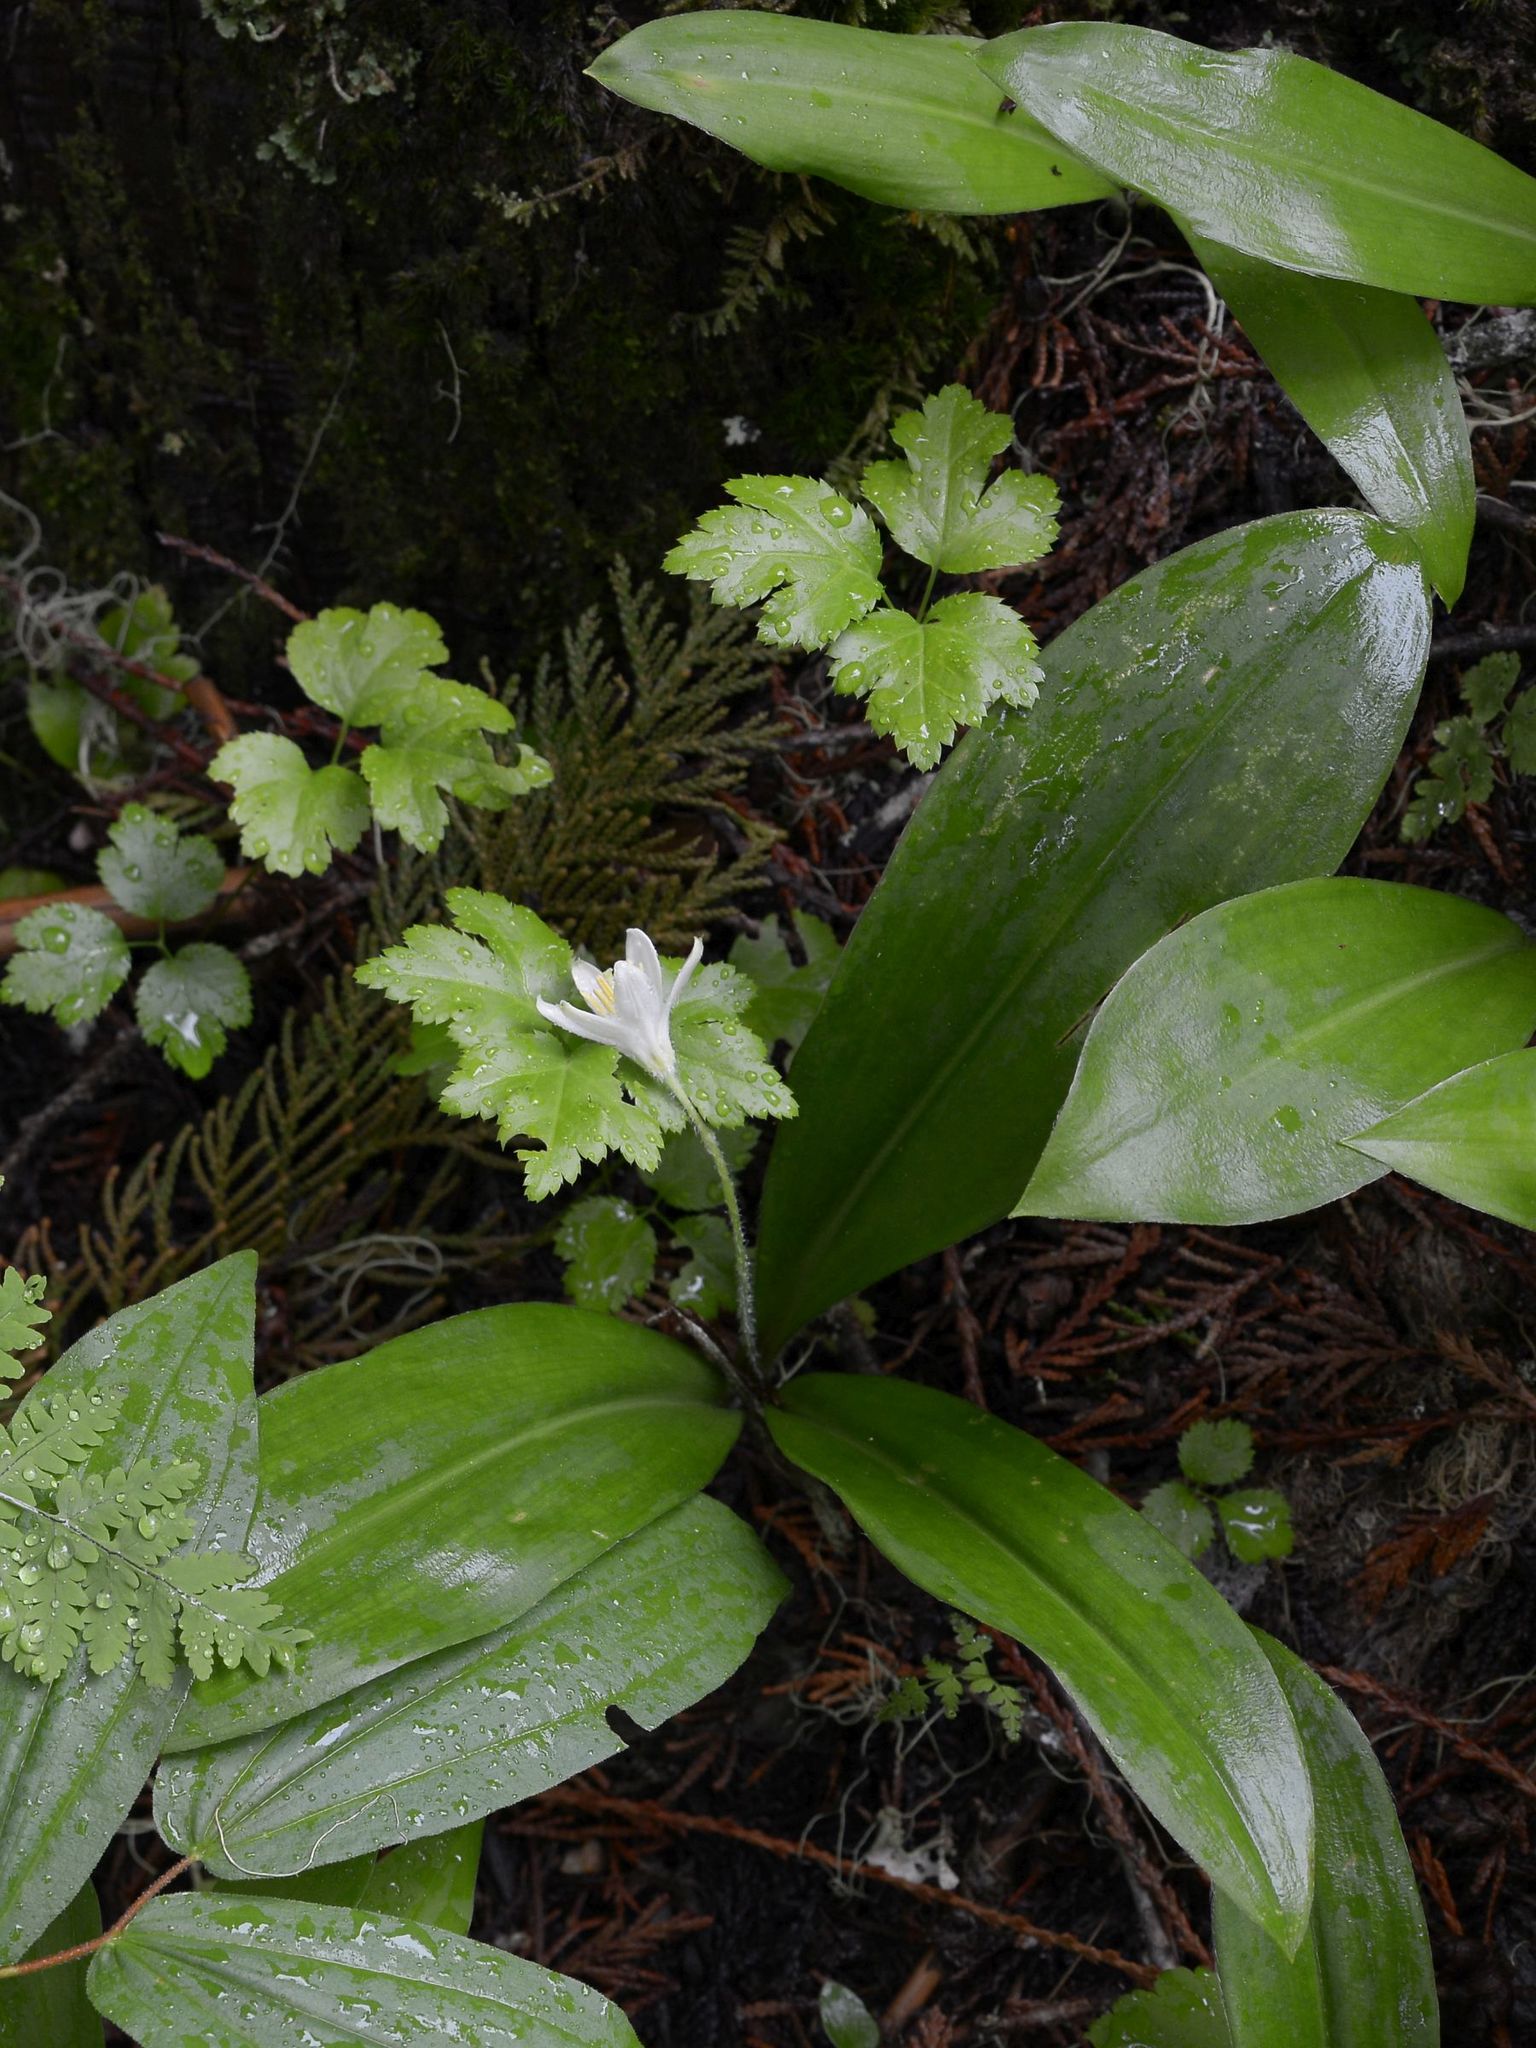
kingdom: Plantae
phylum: Tracheophyta
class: Liliopsida
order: Liliales
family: Liliaceae
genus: Clintonia
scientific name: Clintonia uniflora
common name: Queen's cup
